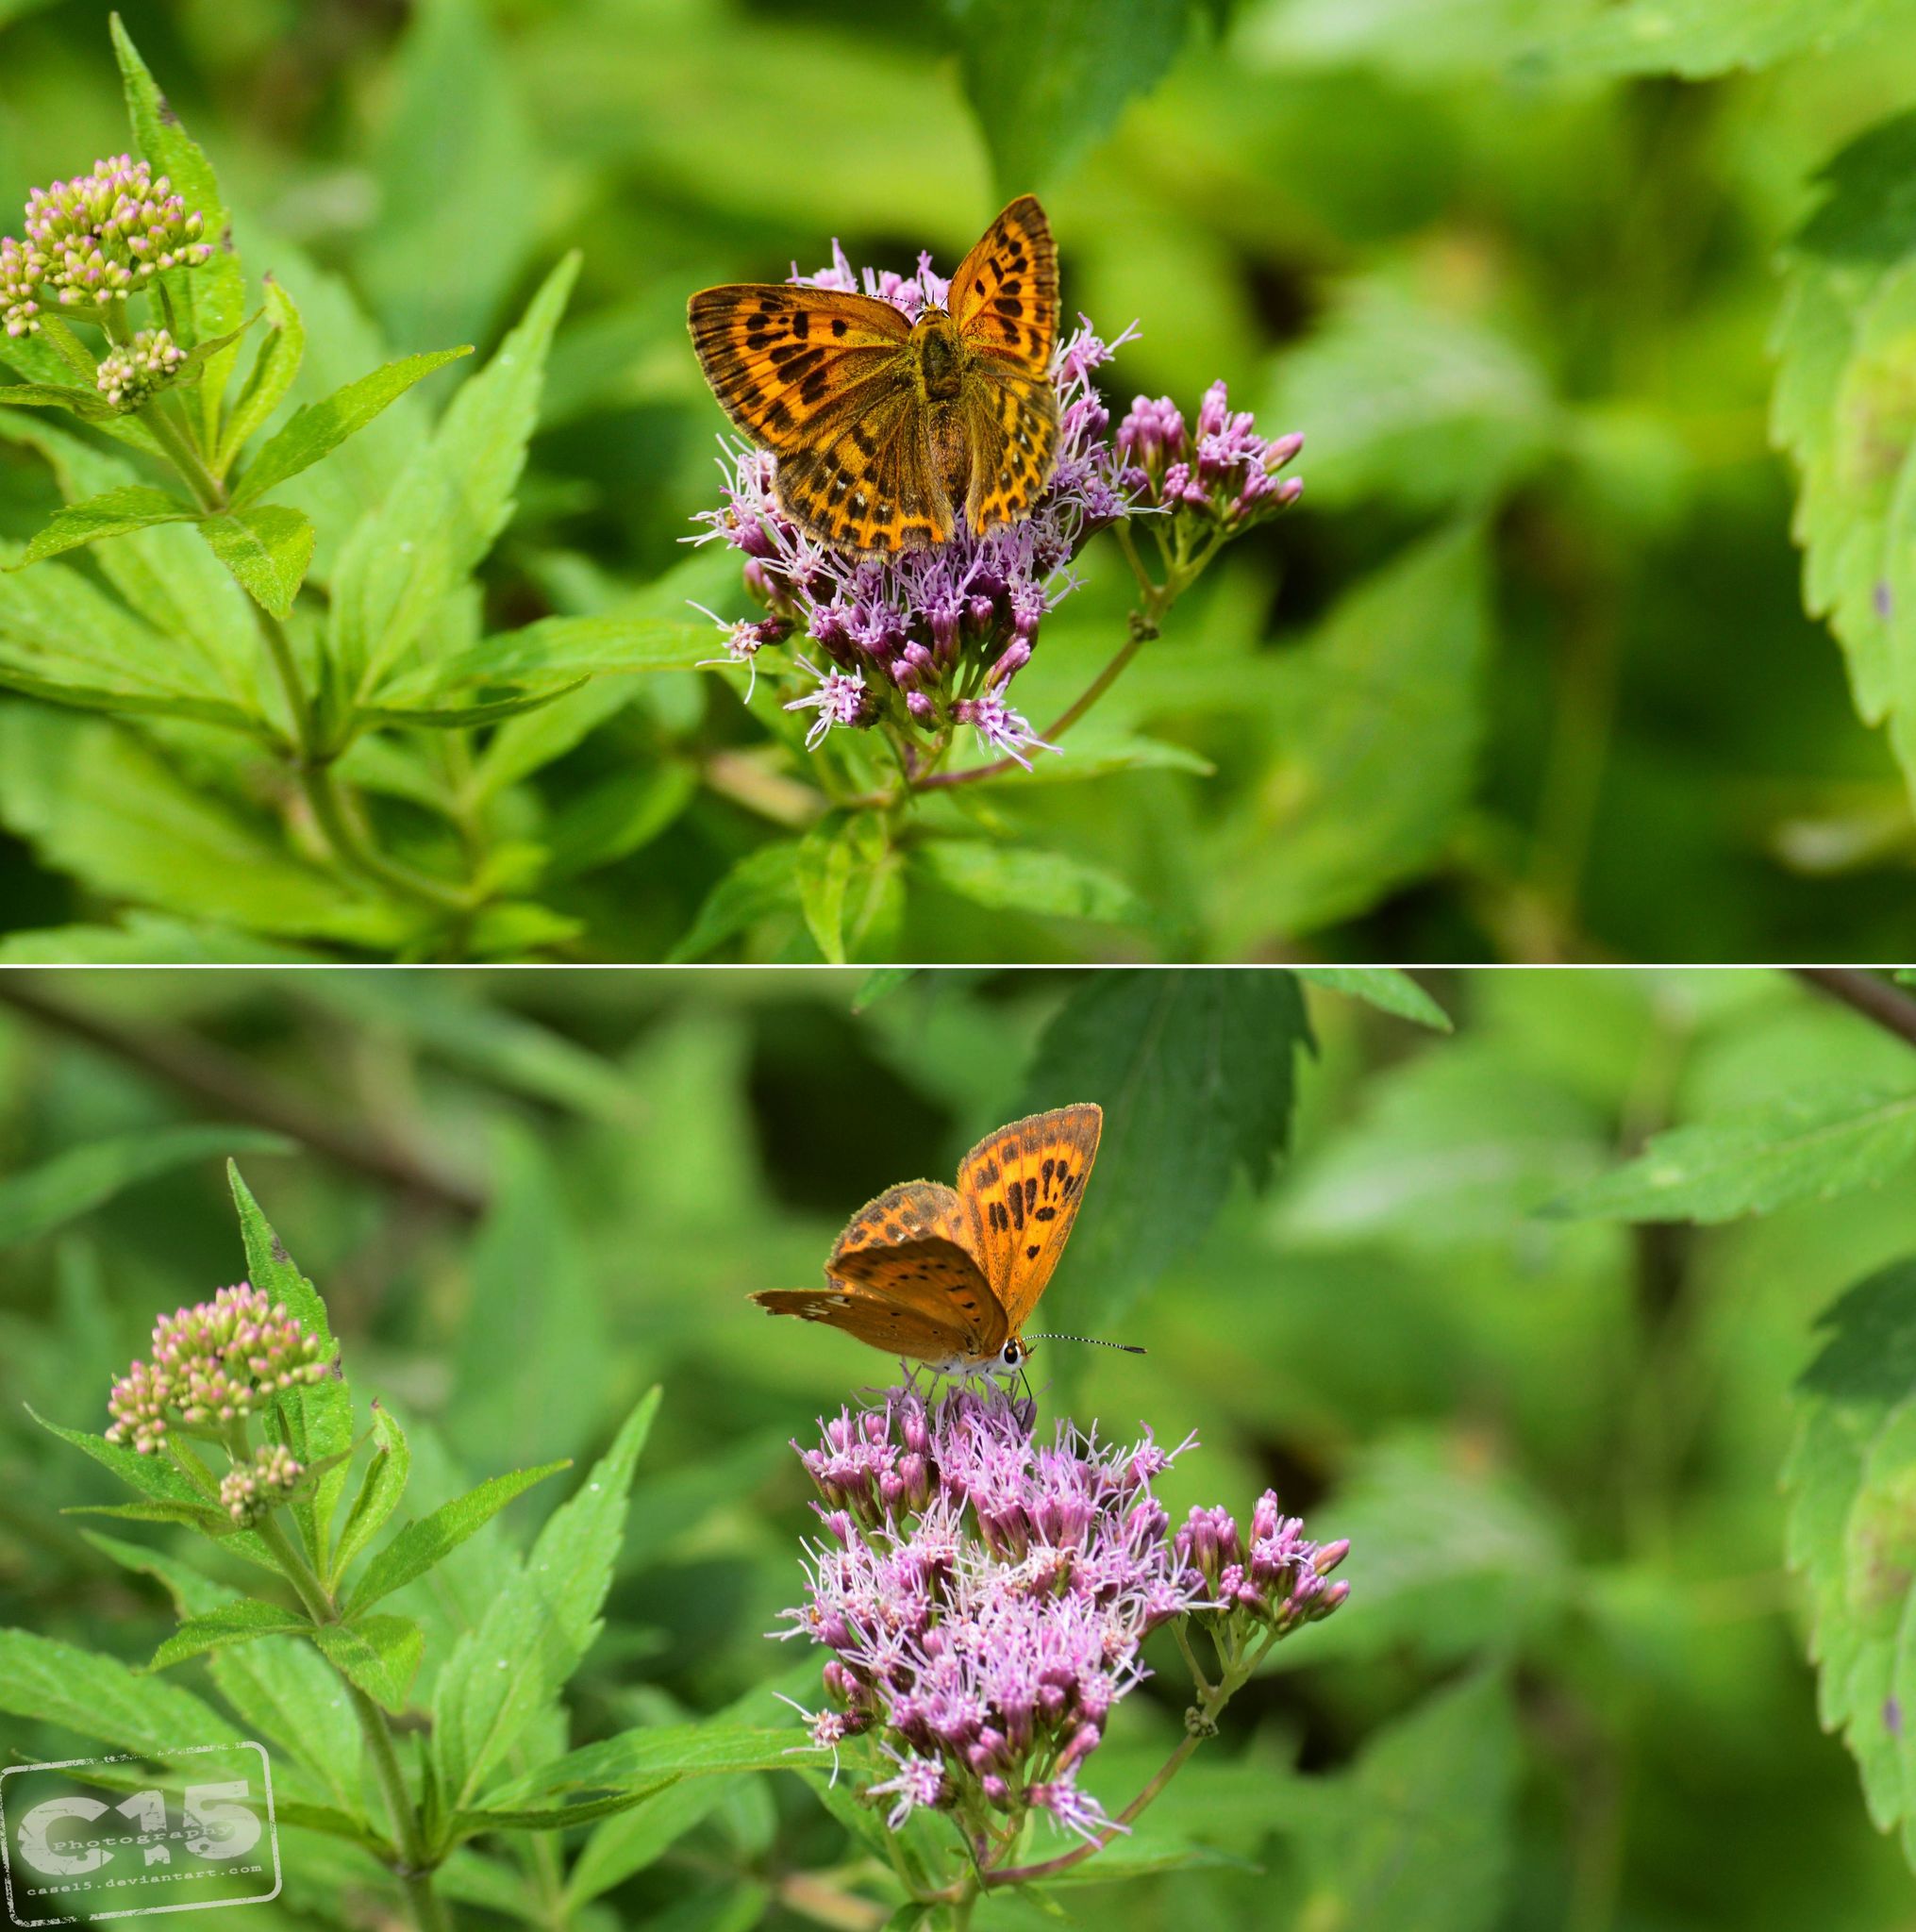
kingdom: Animalia
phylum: Arthropoda
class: Insecta
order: Lepidoptera
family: Lycaenidae
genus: Lycaena
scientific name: Lycaena virgaureae
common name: Scarce copper
